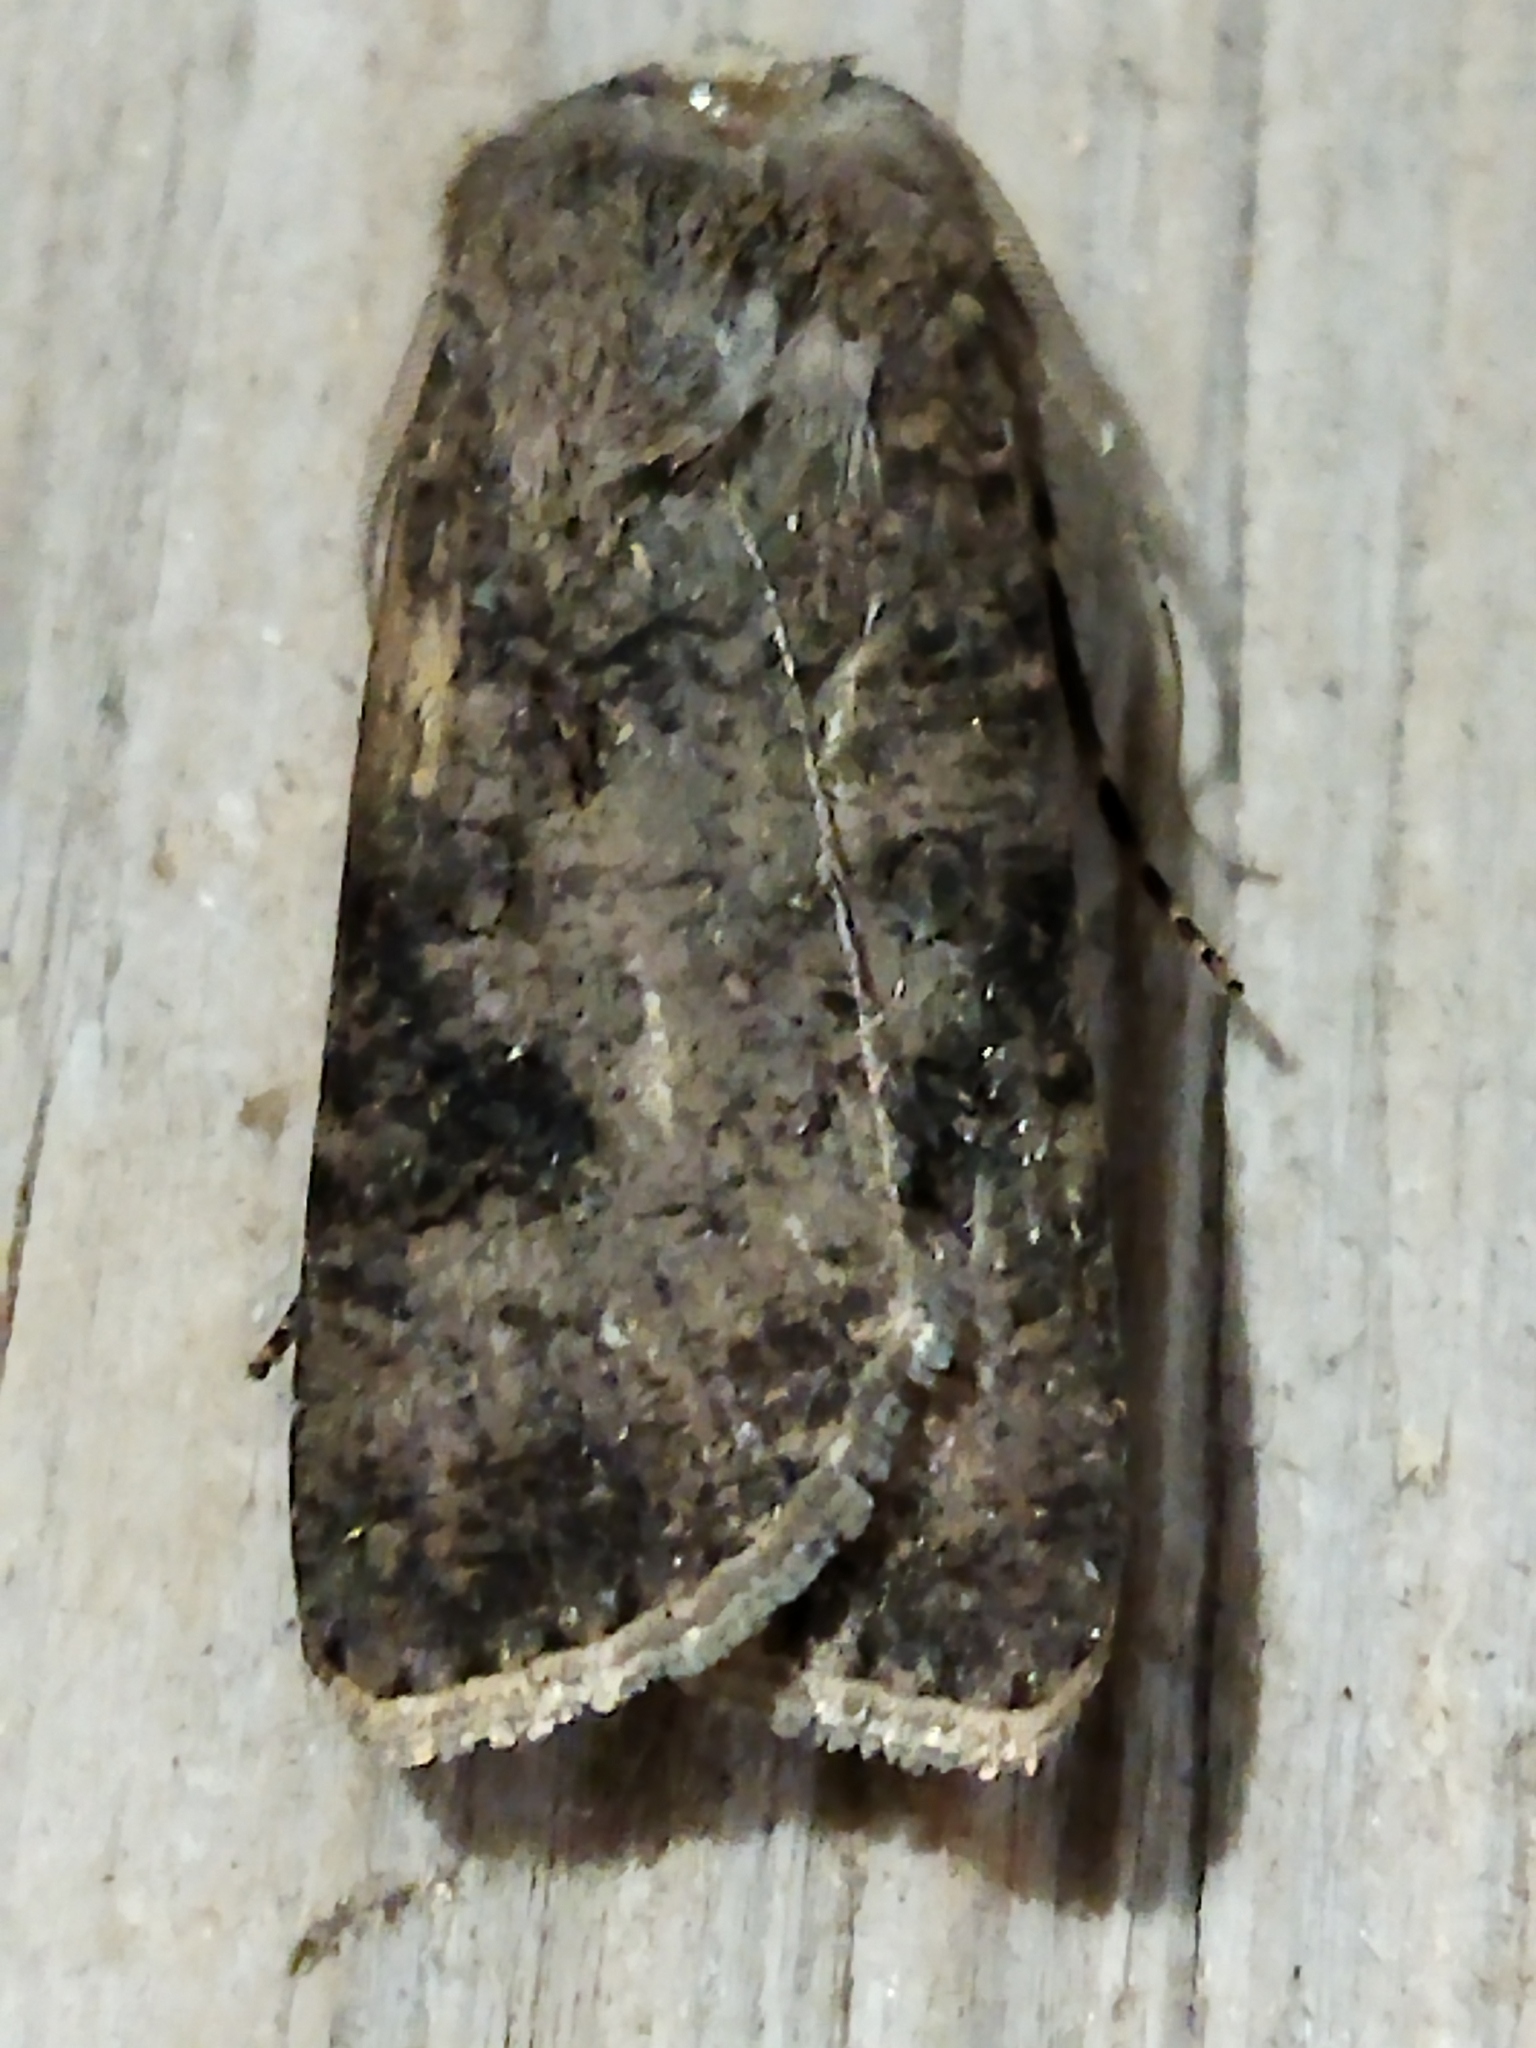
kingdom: Animalia
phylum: Arthropoda
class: Insecta
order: Lepidoptera
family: Noctuidae
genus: Agrotis
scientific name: Agrotis clavis
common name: Heart and club
